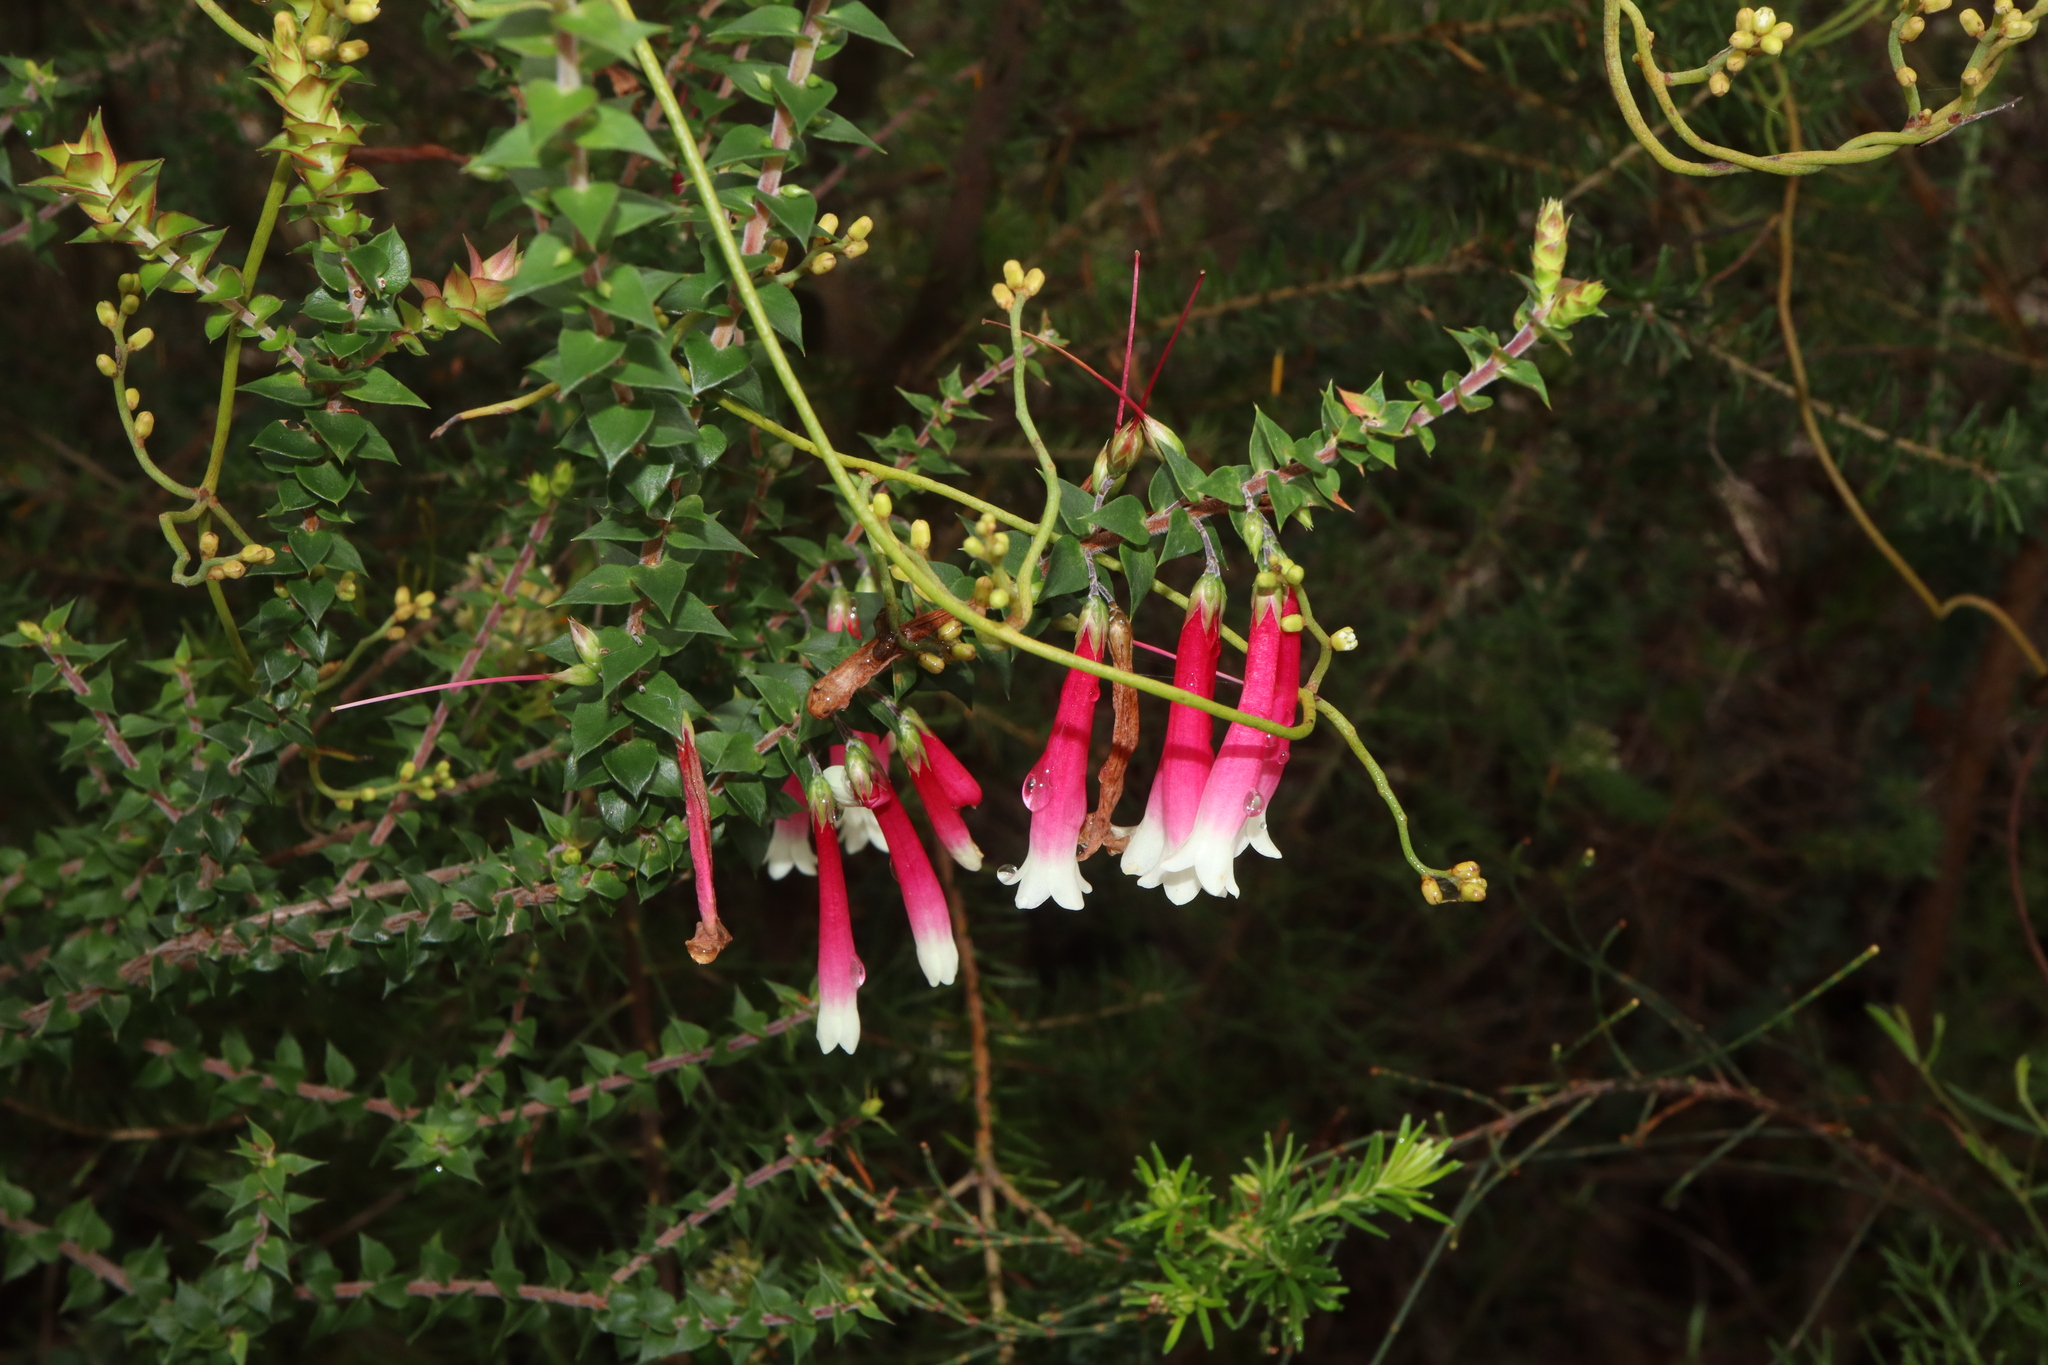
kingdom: Plantae
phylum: Tracheophyta
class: Magnoliopsida
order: Ericales
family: Ericaceae
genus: Epacris
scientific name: Epacris longiflora
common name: Fuchsia-heath
